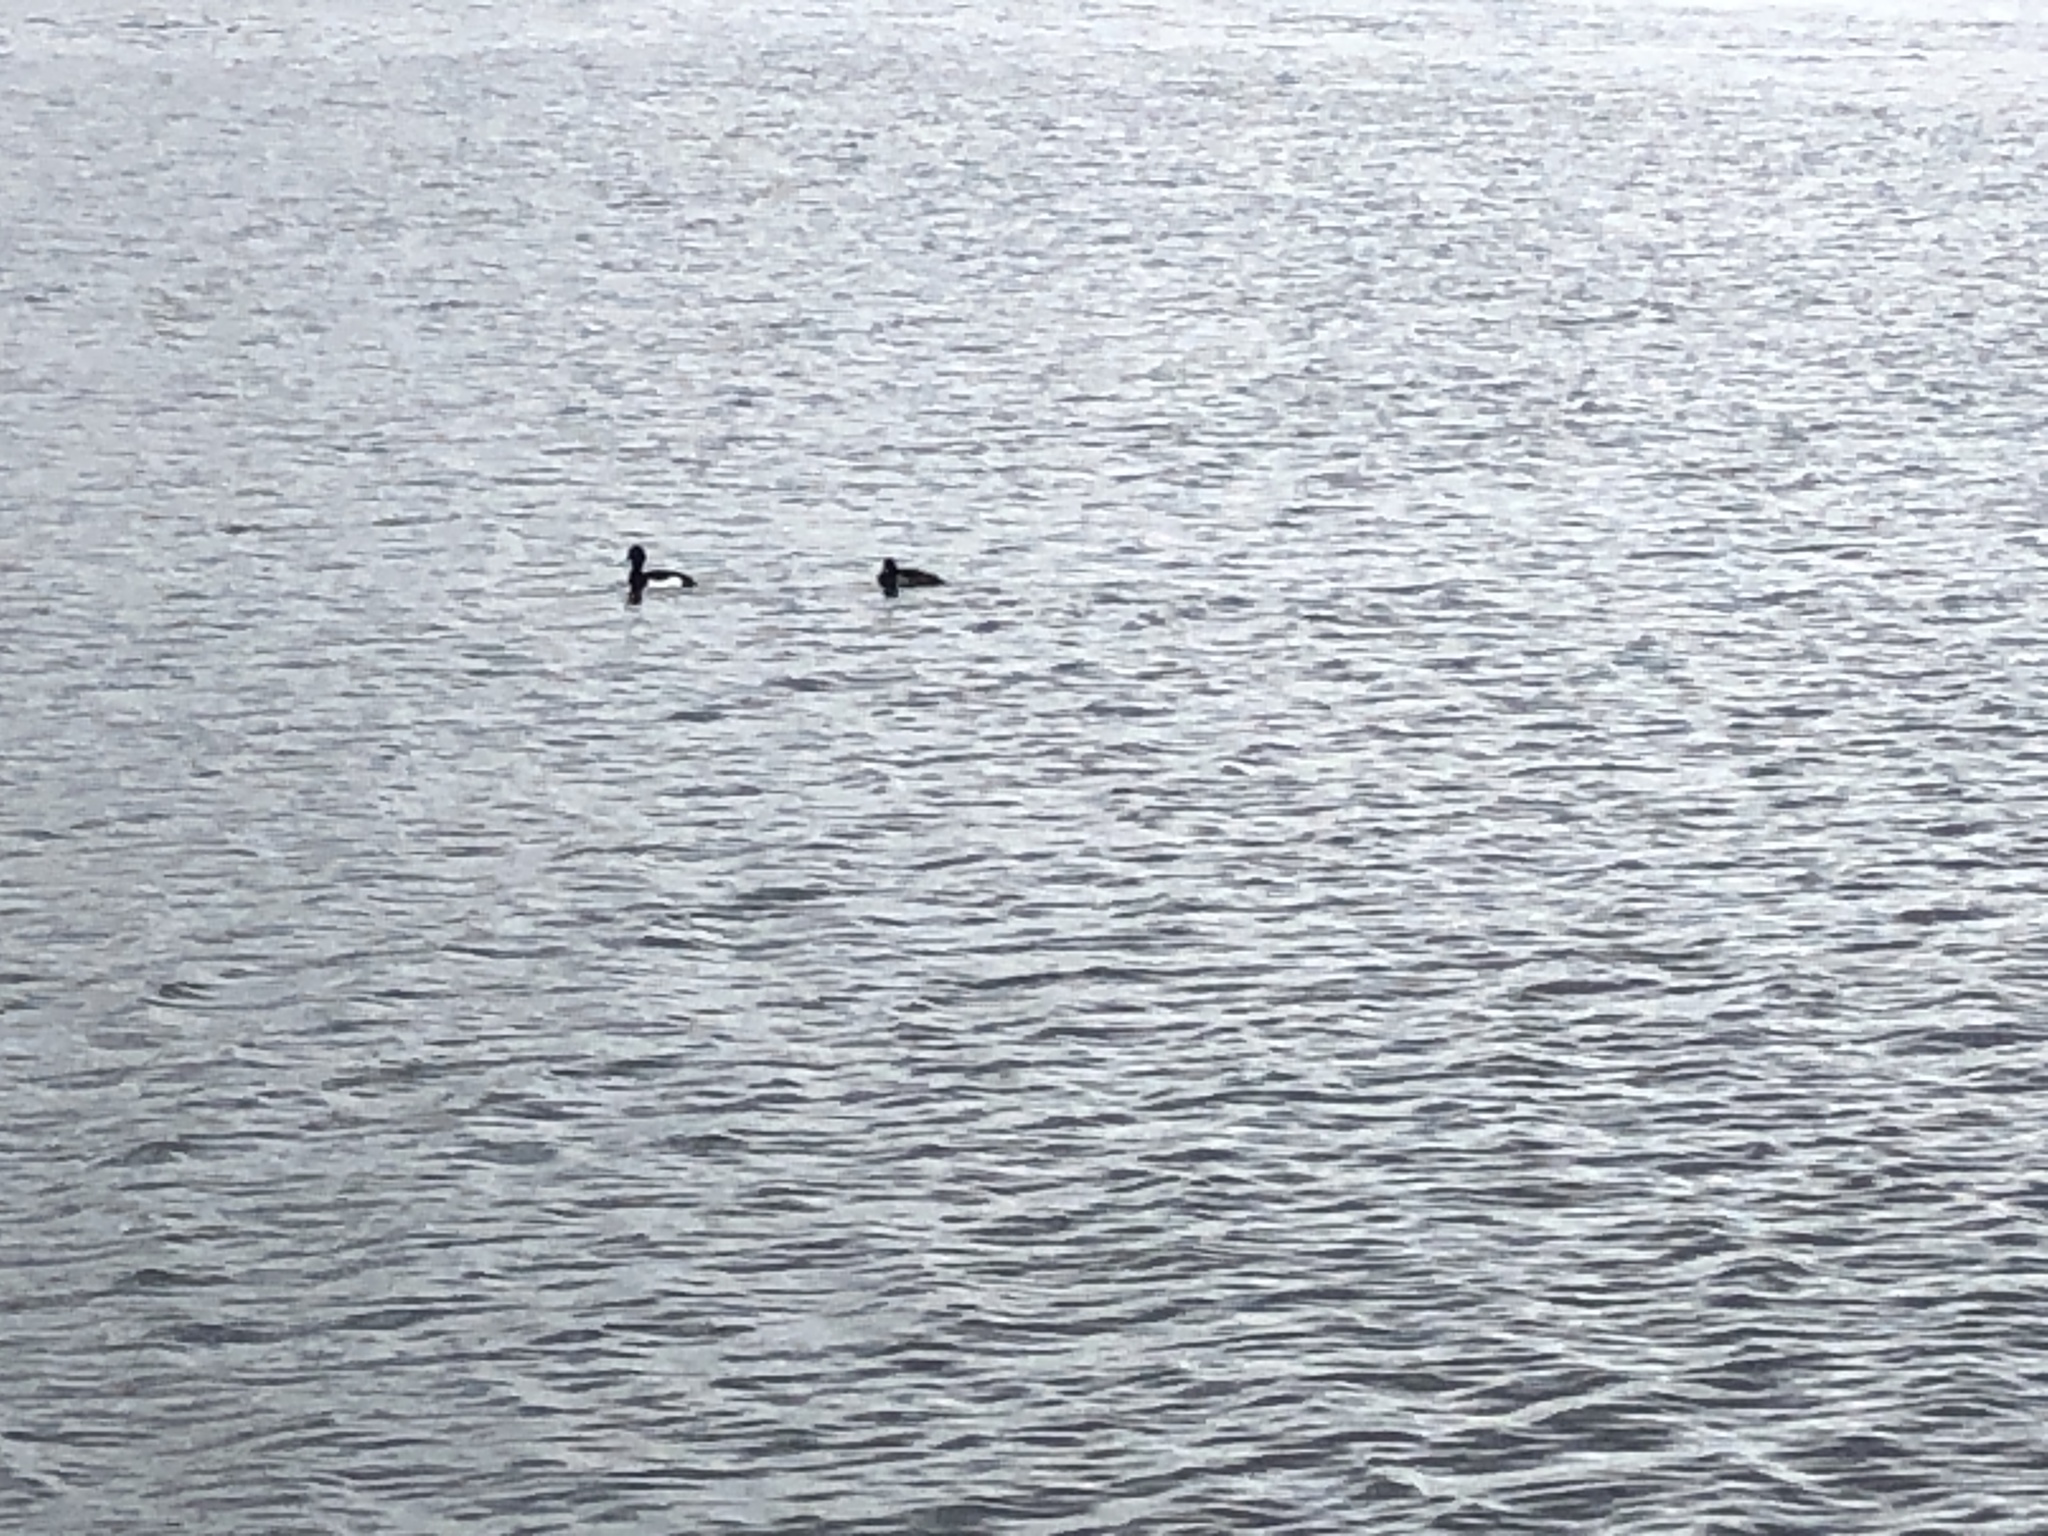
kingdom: Animalia
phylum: Chordata
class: Aves
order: Anseriformes
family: Anatidae
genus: Aythya
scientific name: Aythya fuligula
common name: Tufted duck
